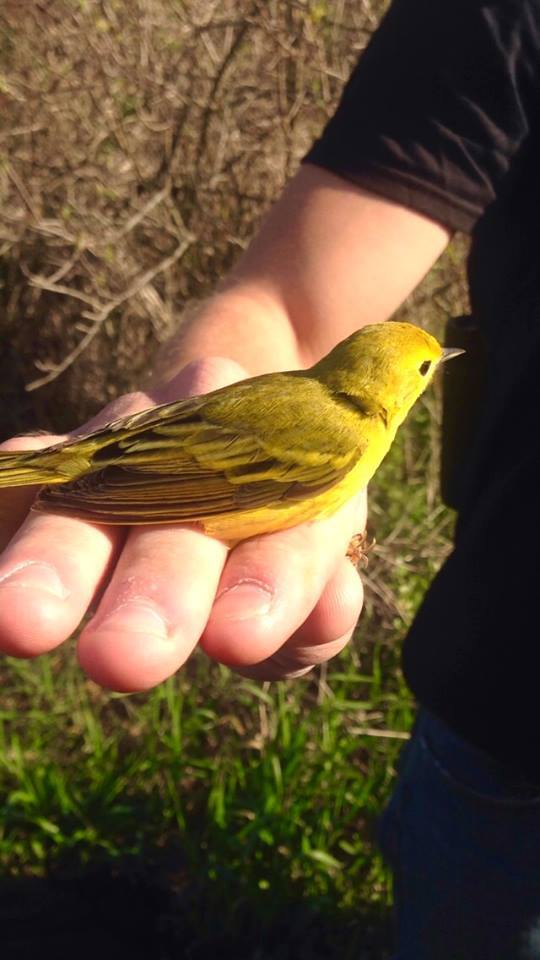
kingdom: Animalia
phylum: Chordata
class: Aves
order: Passeriformes
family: Parulidae
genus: Setophaga
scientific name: Setophaga petechia
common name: Yellow warbler
